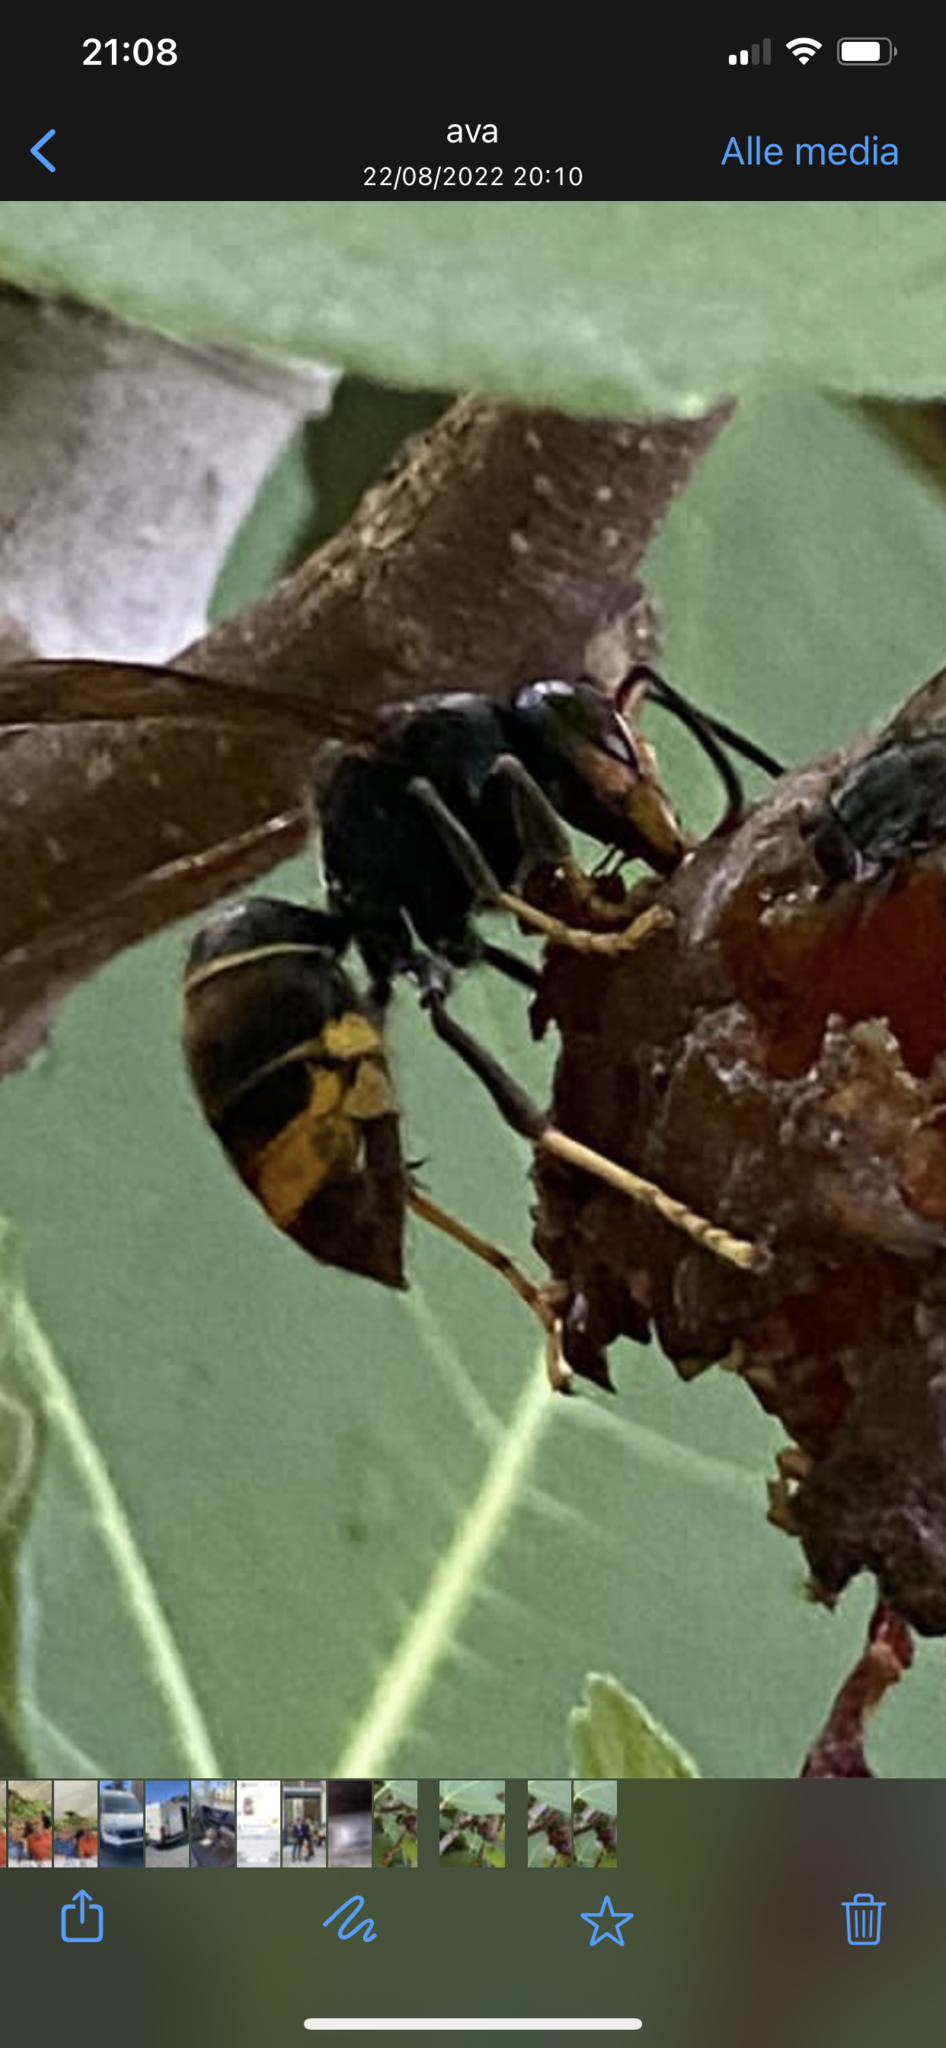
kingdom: Animalia
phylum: Arthropoda
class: Insecta
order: Hymenoptera
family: Vespidae
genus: Vespa
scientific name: Vespa velutina
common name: Asian hornet
